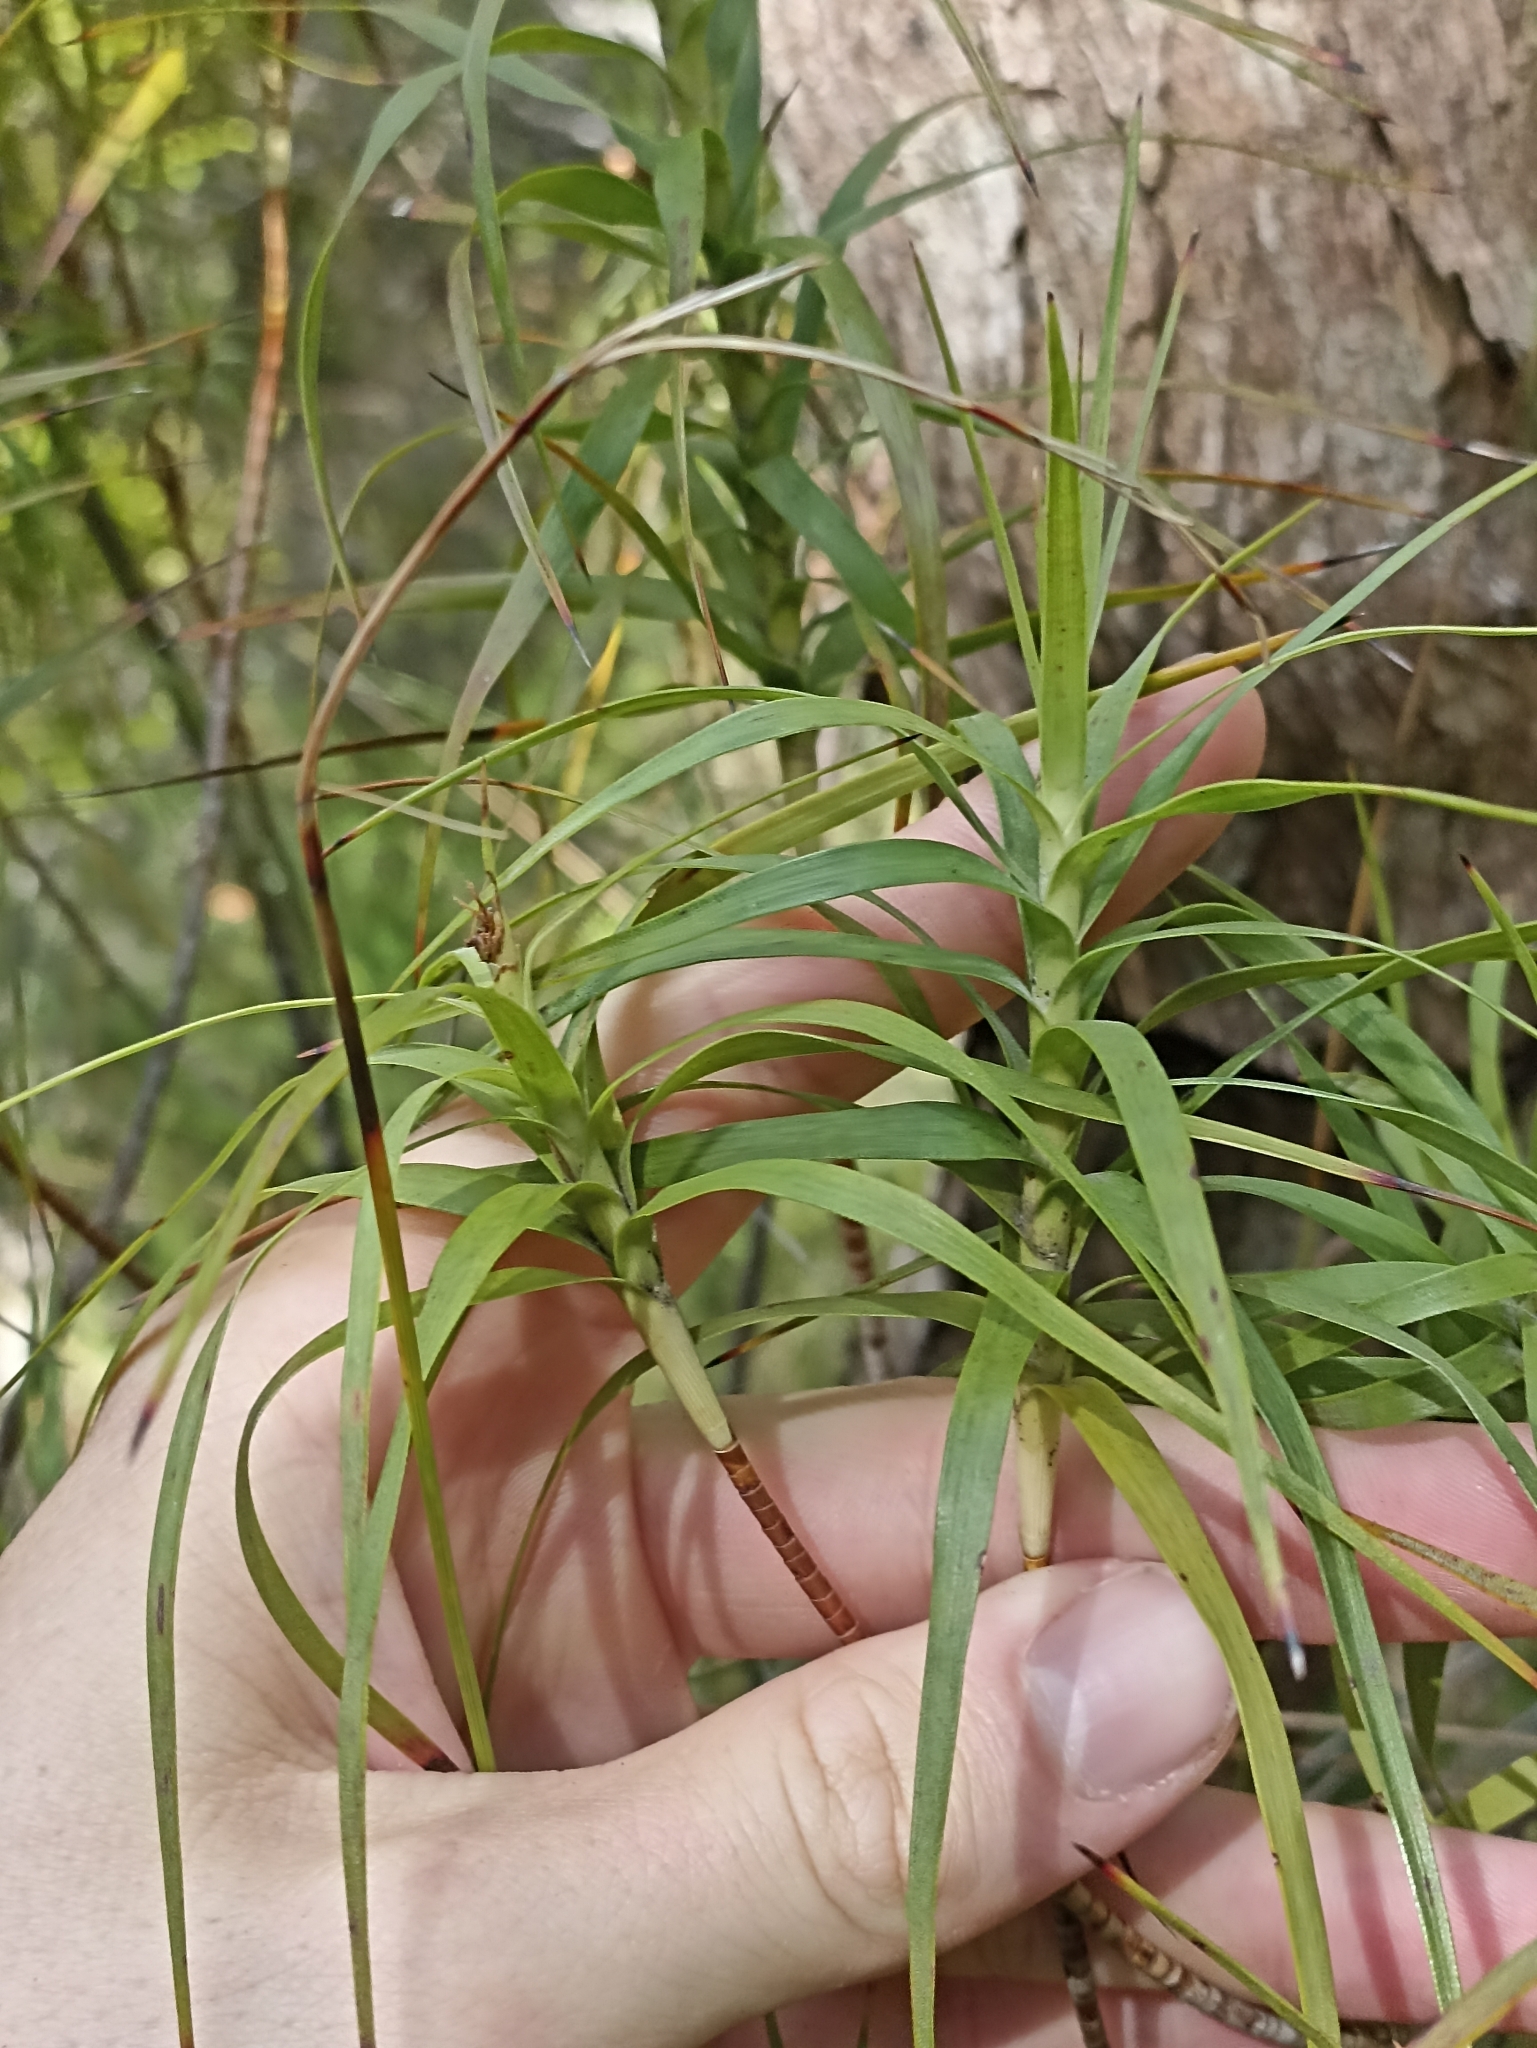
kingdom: Plantae
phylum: Tracheophyta
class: Magnoliopsida
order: Ericales
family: Ericaceae
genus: Dracophyllum
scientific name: Dracophyllum sinclairii
